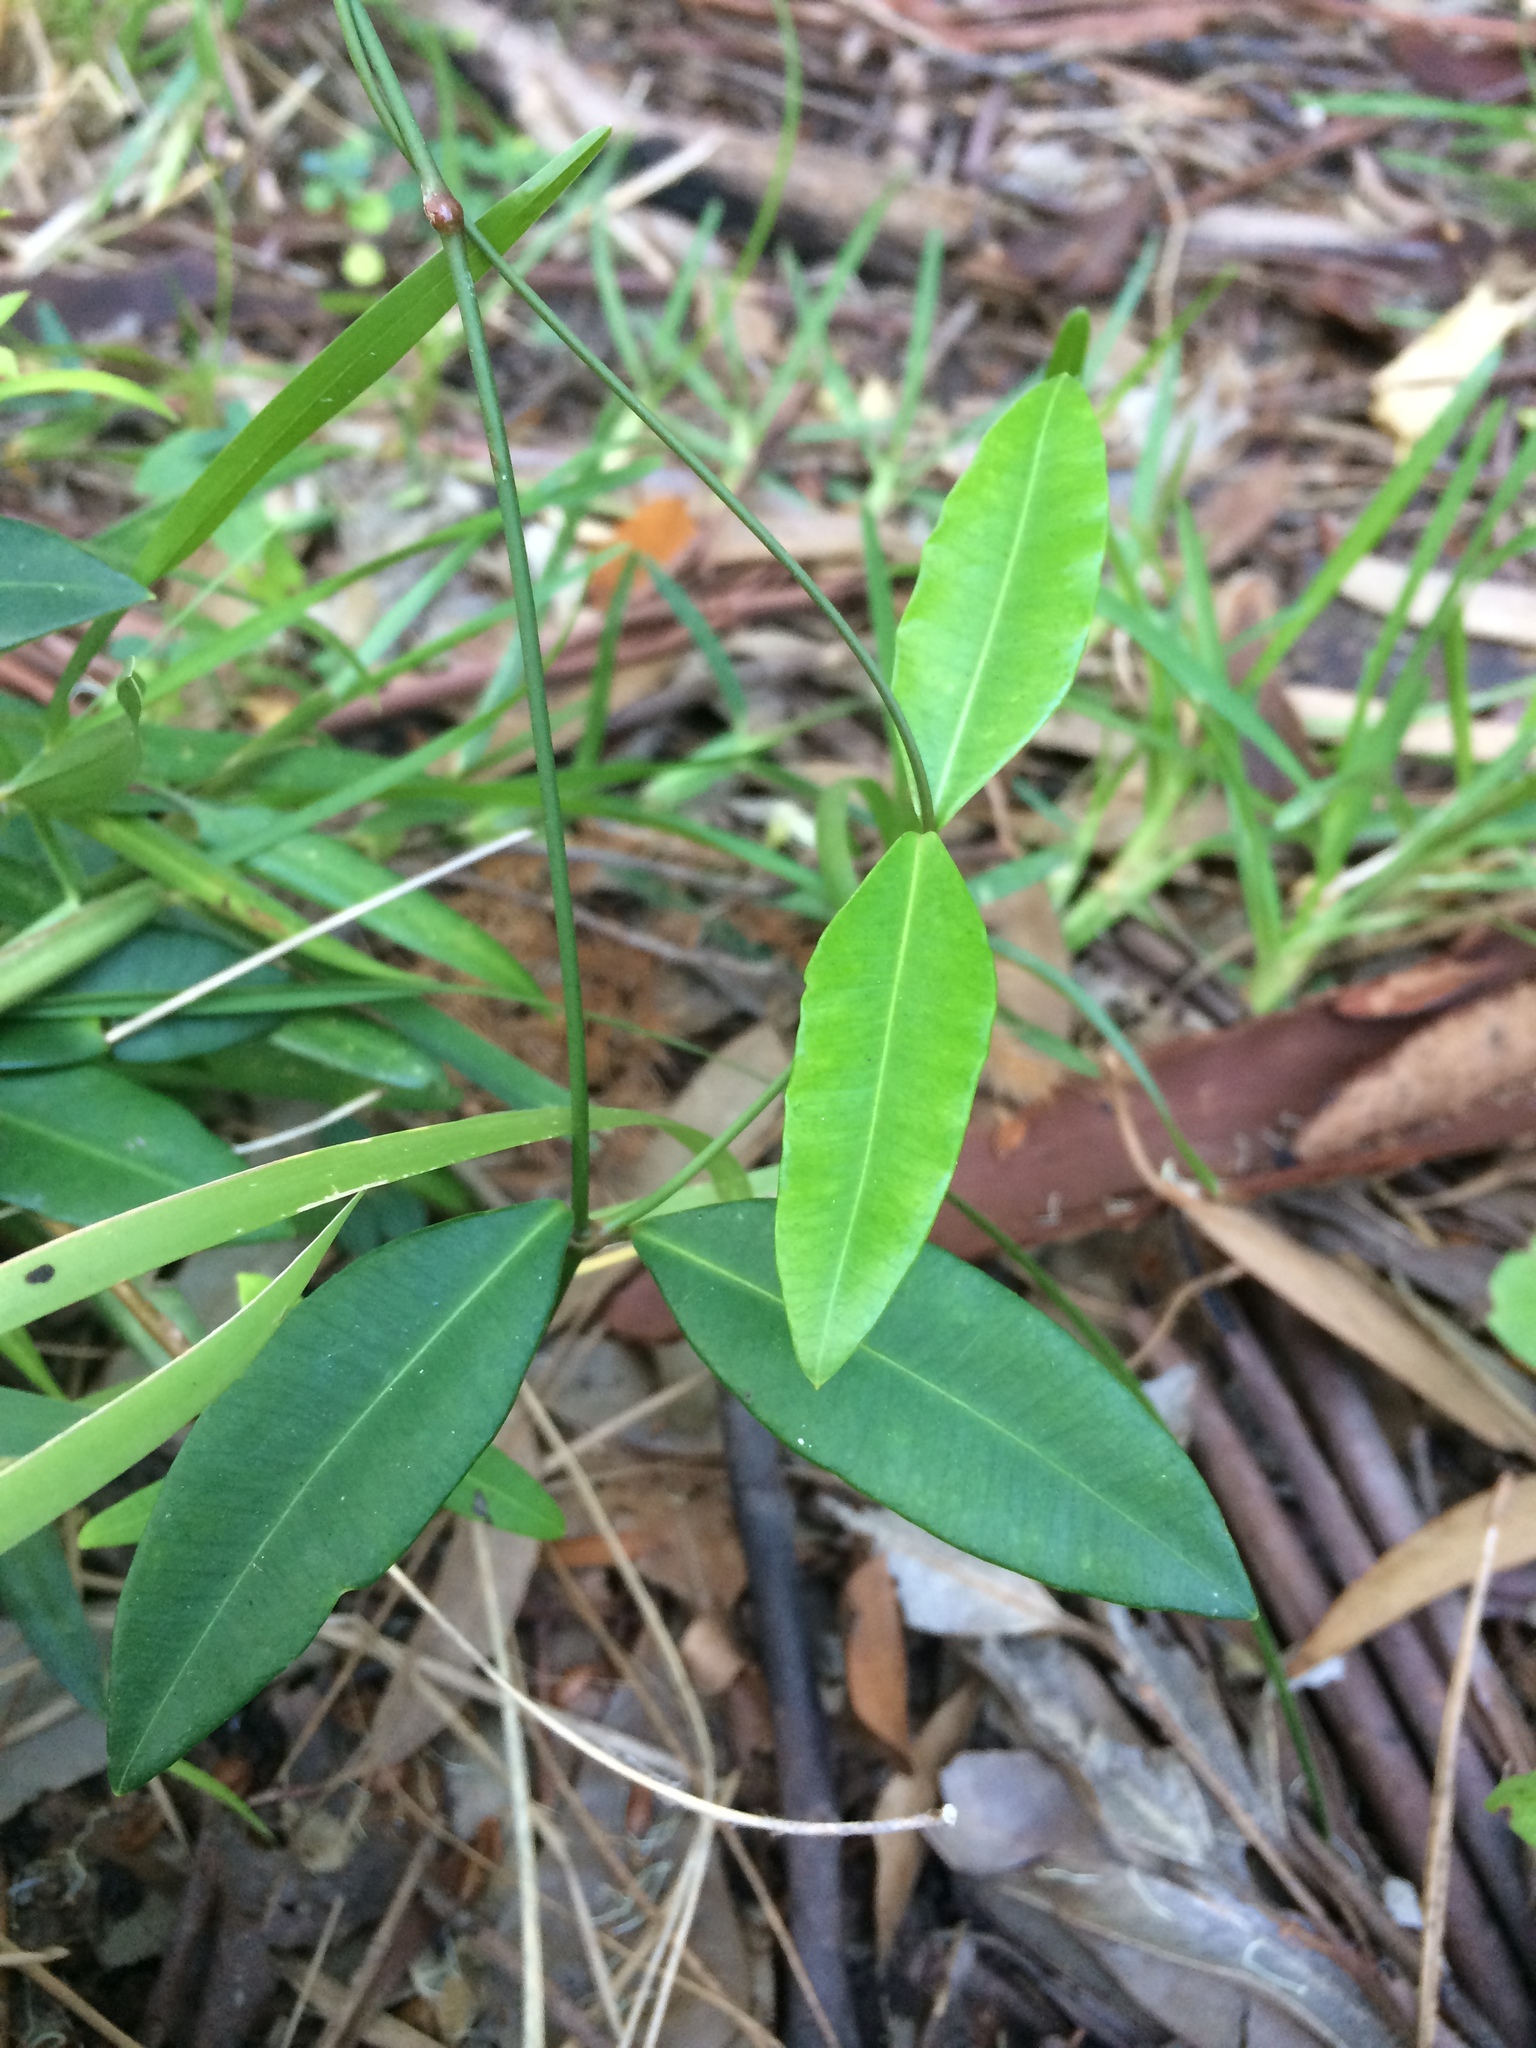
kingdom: Plantae
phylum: Tracheophyta
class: Magnoliopsida
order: Gentianales
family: Apocynaceae
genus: Secamone
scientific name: Secamone alpini
